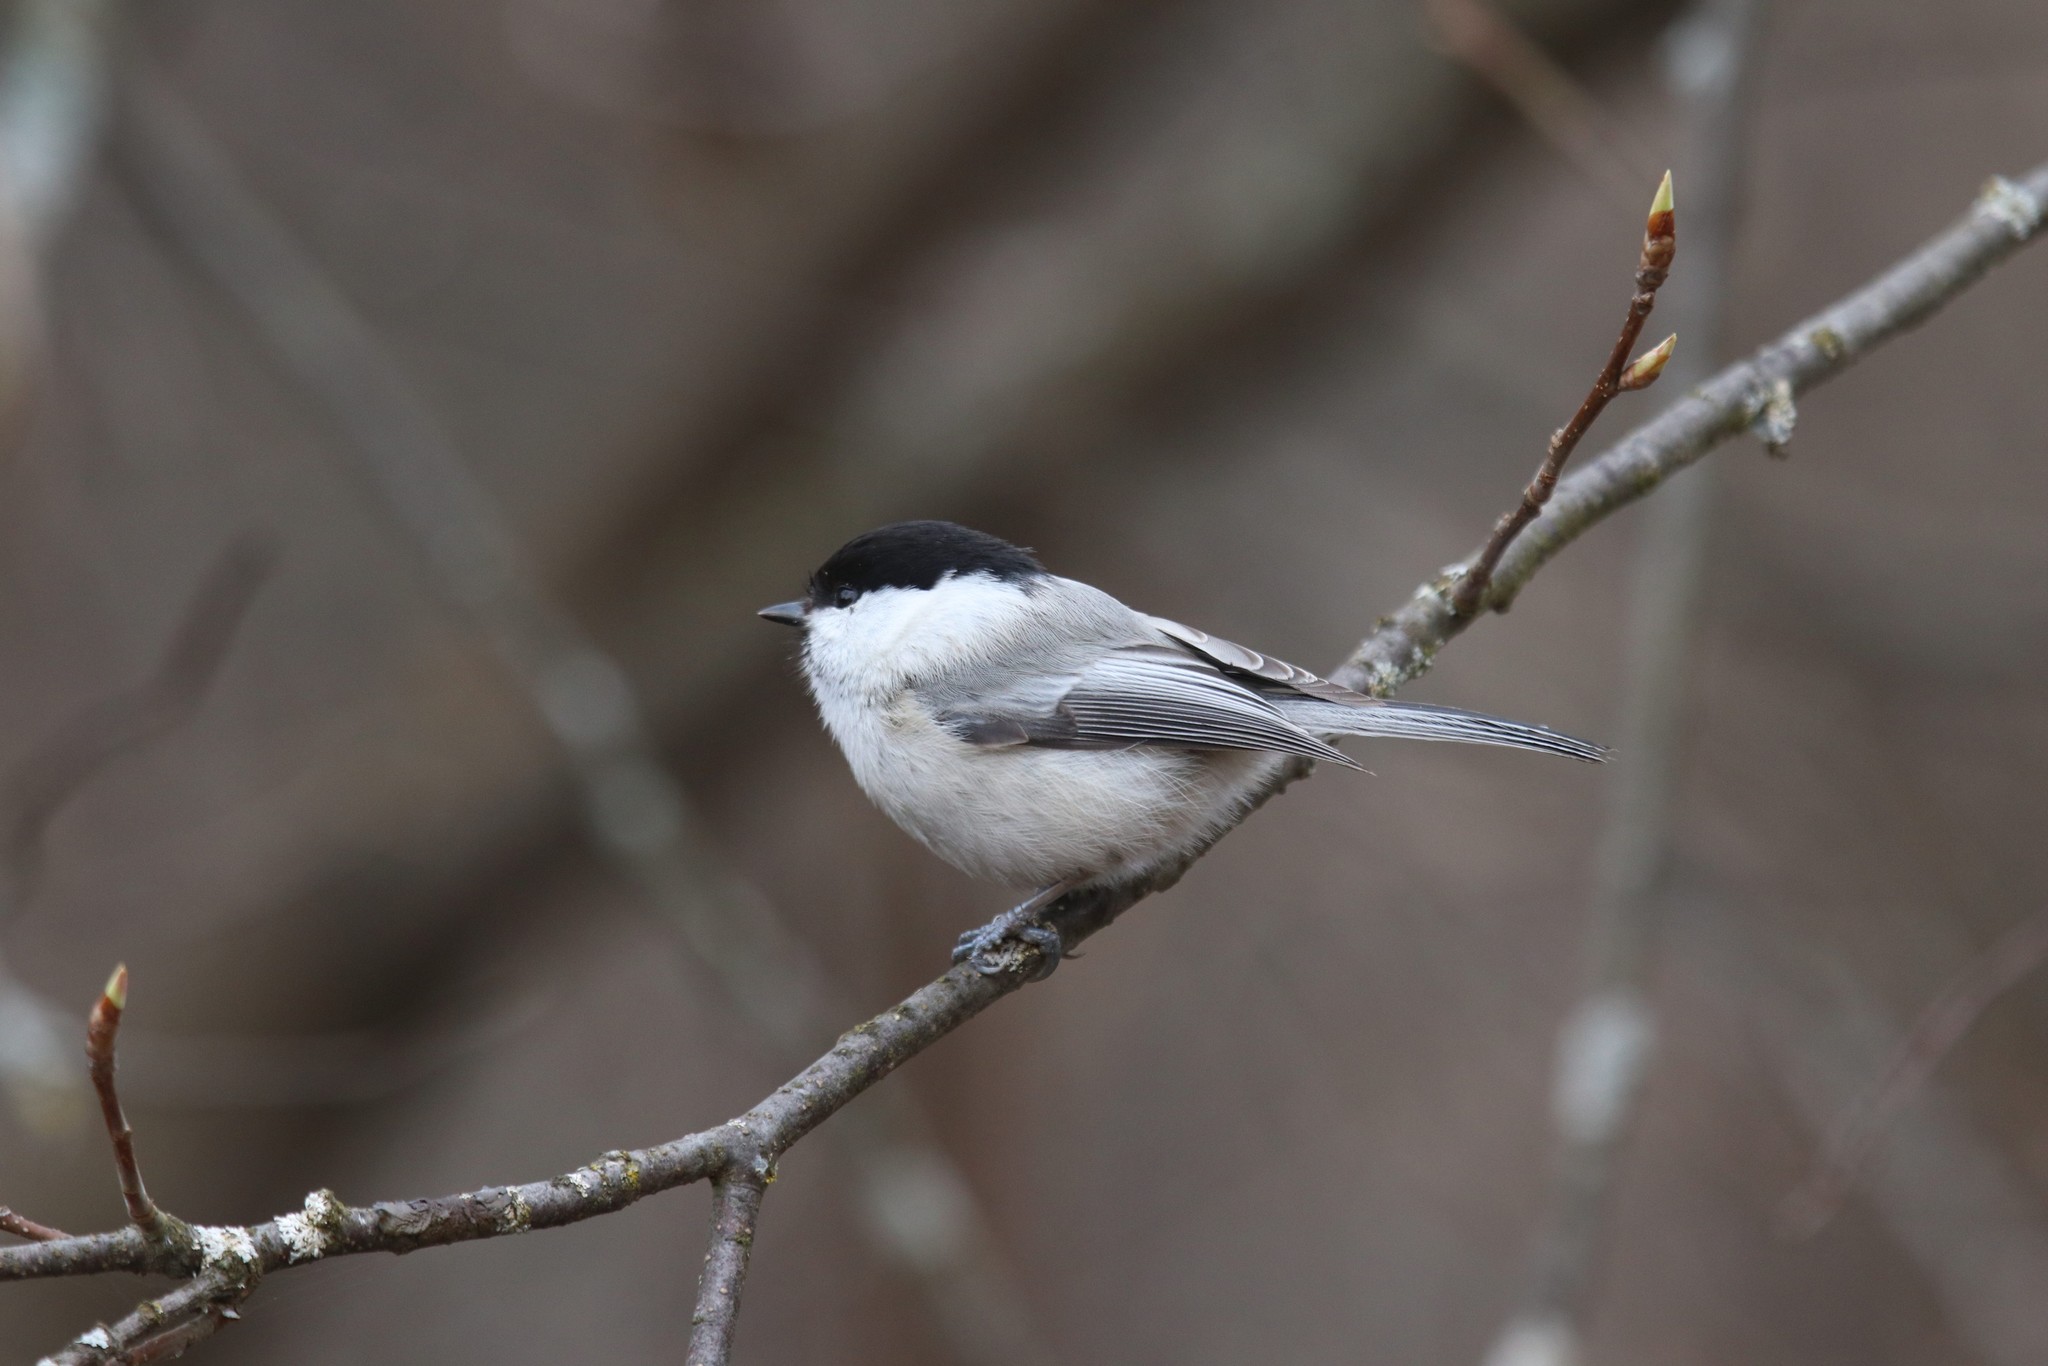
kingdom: Animalia
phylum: Chordata
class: Aves
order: Passeriformes
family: Paridae
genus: Poecile
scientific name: Poecile montanus
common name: Willow tit
